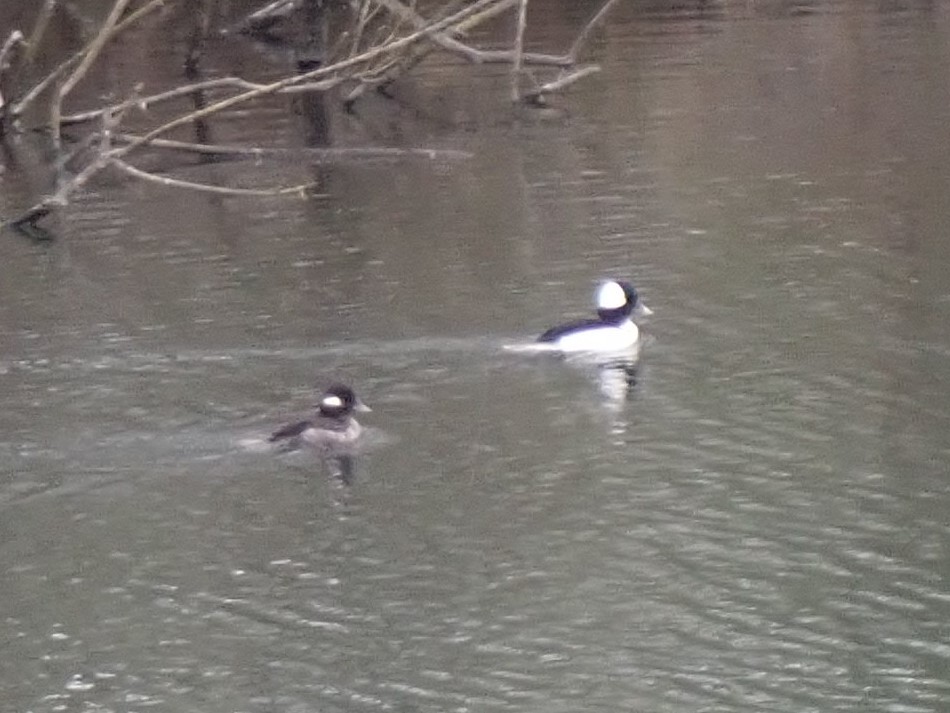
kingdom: Animalia
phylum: Chordata
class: Aves
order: Anseriformes
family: Anatidae
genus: Bucephala
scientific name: Bucephala albeola
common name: Bufflehead
